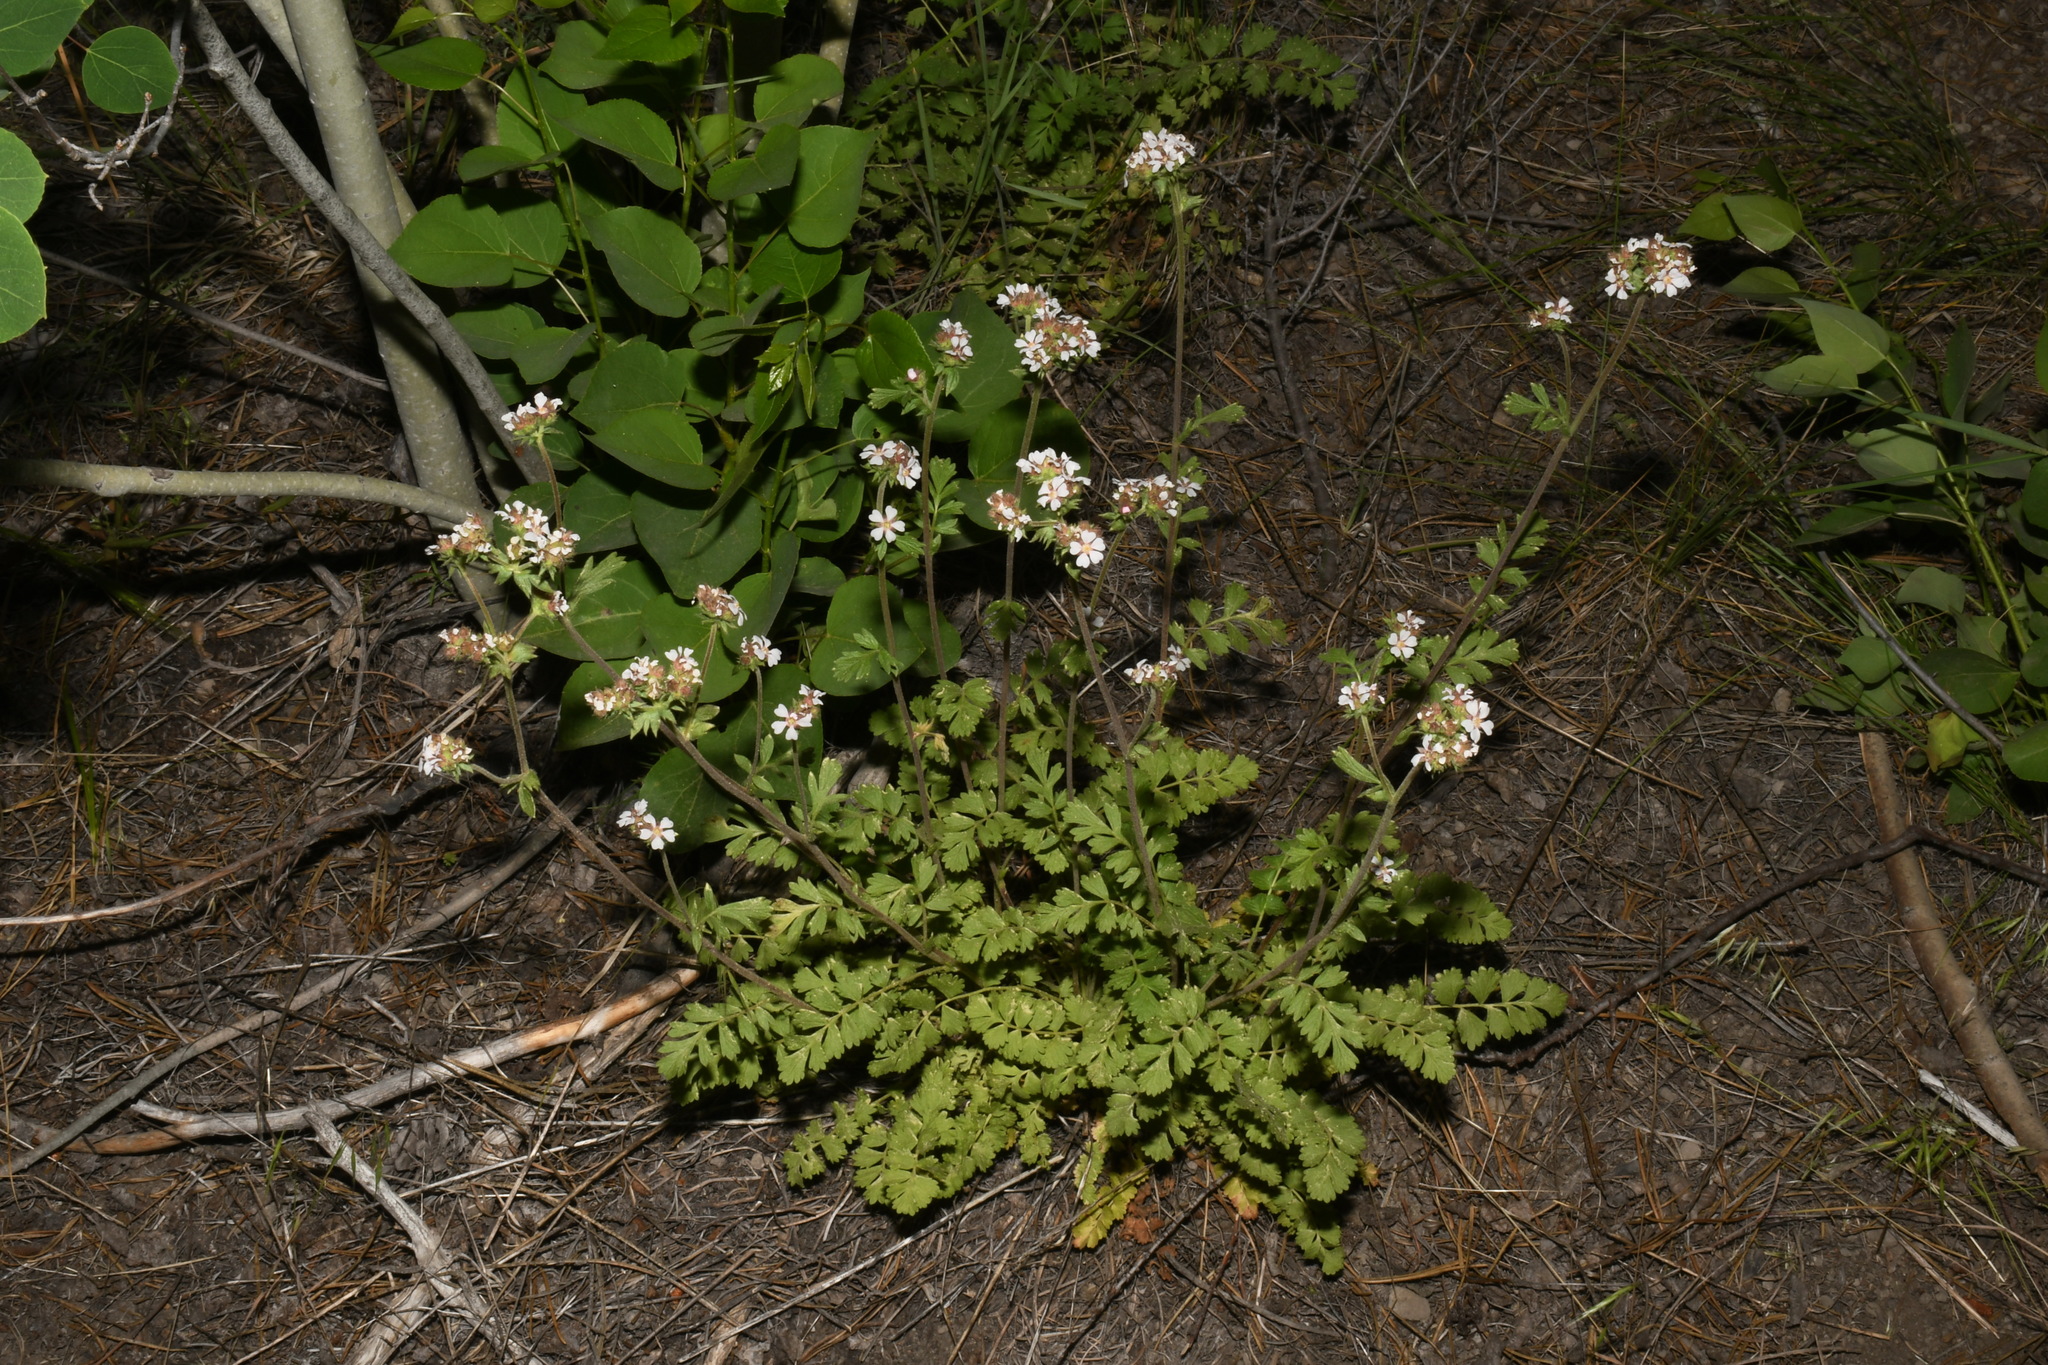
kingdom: Plantae
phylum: Tracheophyta
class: Magnoliopsida
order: Rosales
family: Rosaceae
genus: Potentilla
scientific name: Potentilla douglasii
